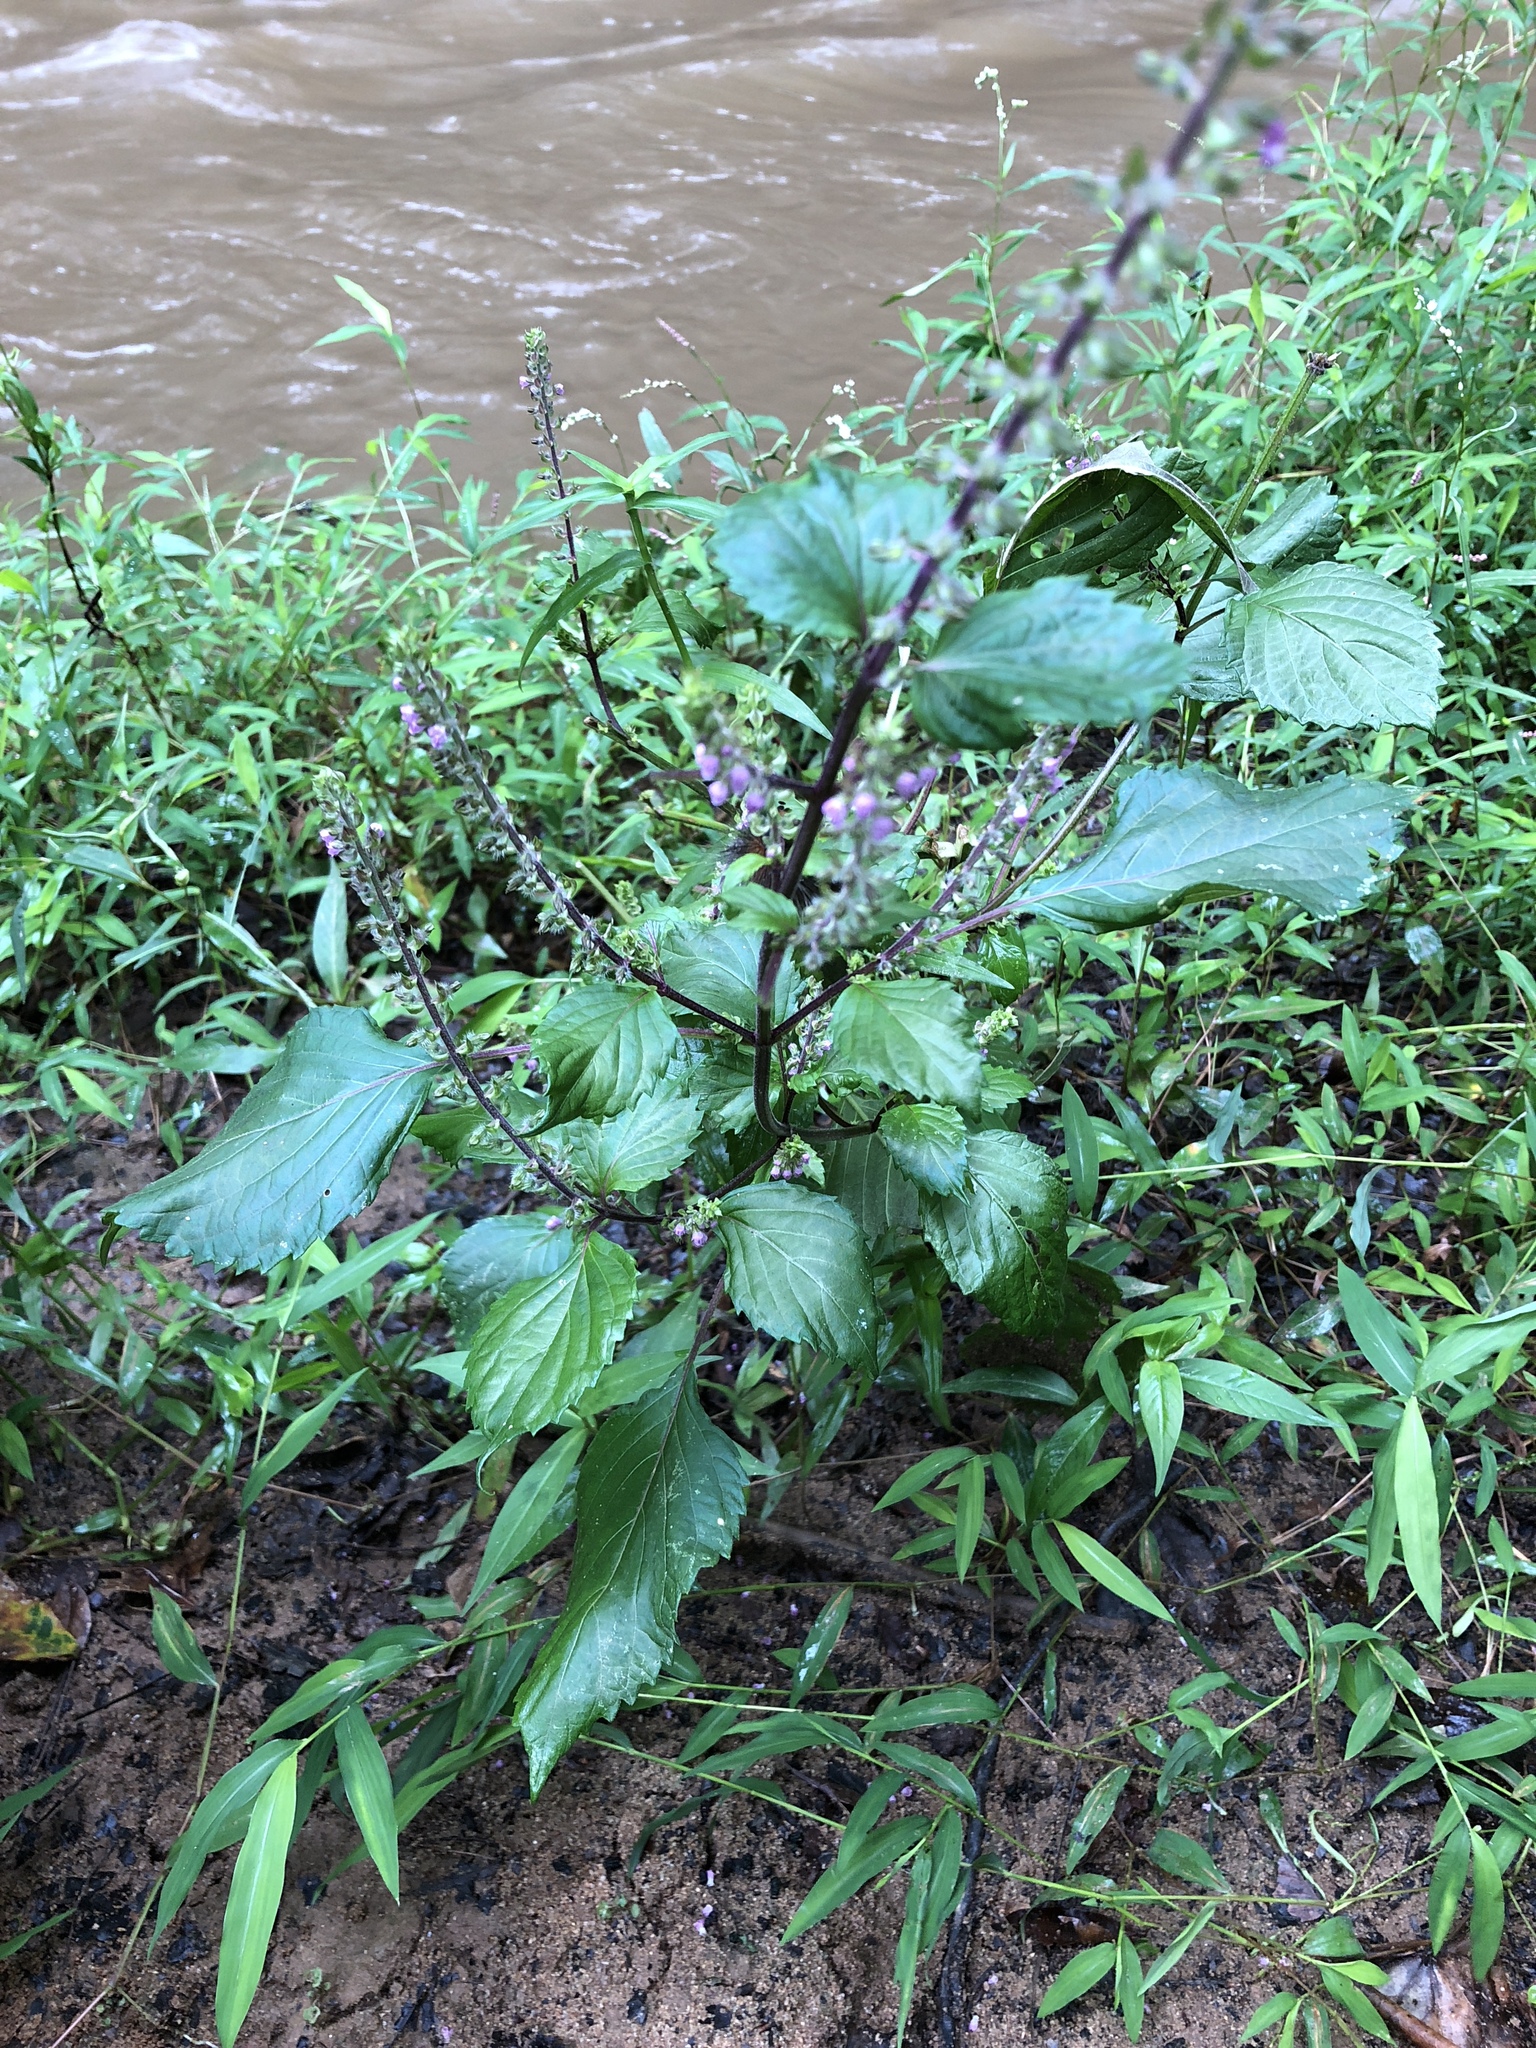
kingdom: Plantae
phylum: Tracheophyta
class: Magnoliopsida
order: Lamiales
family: Lamiaceae
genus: Perilla
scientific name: Perilla frutescens
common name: Perilla
